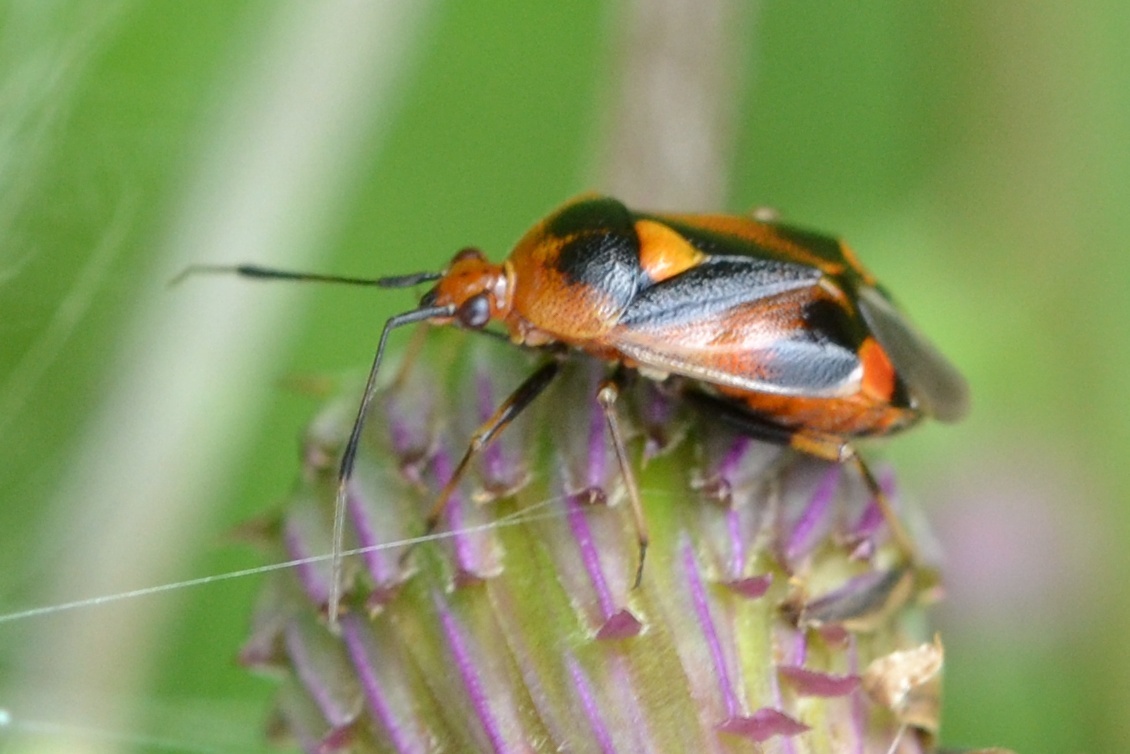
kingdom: Animalia
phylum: Arthropoda
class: Insecta
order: Hemiptera
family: Miridae
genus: Deraeocoris
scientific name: Deraeocoris ruber
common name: Plant bug
